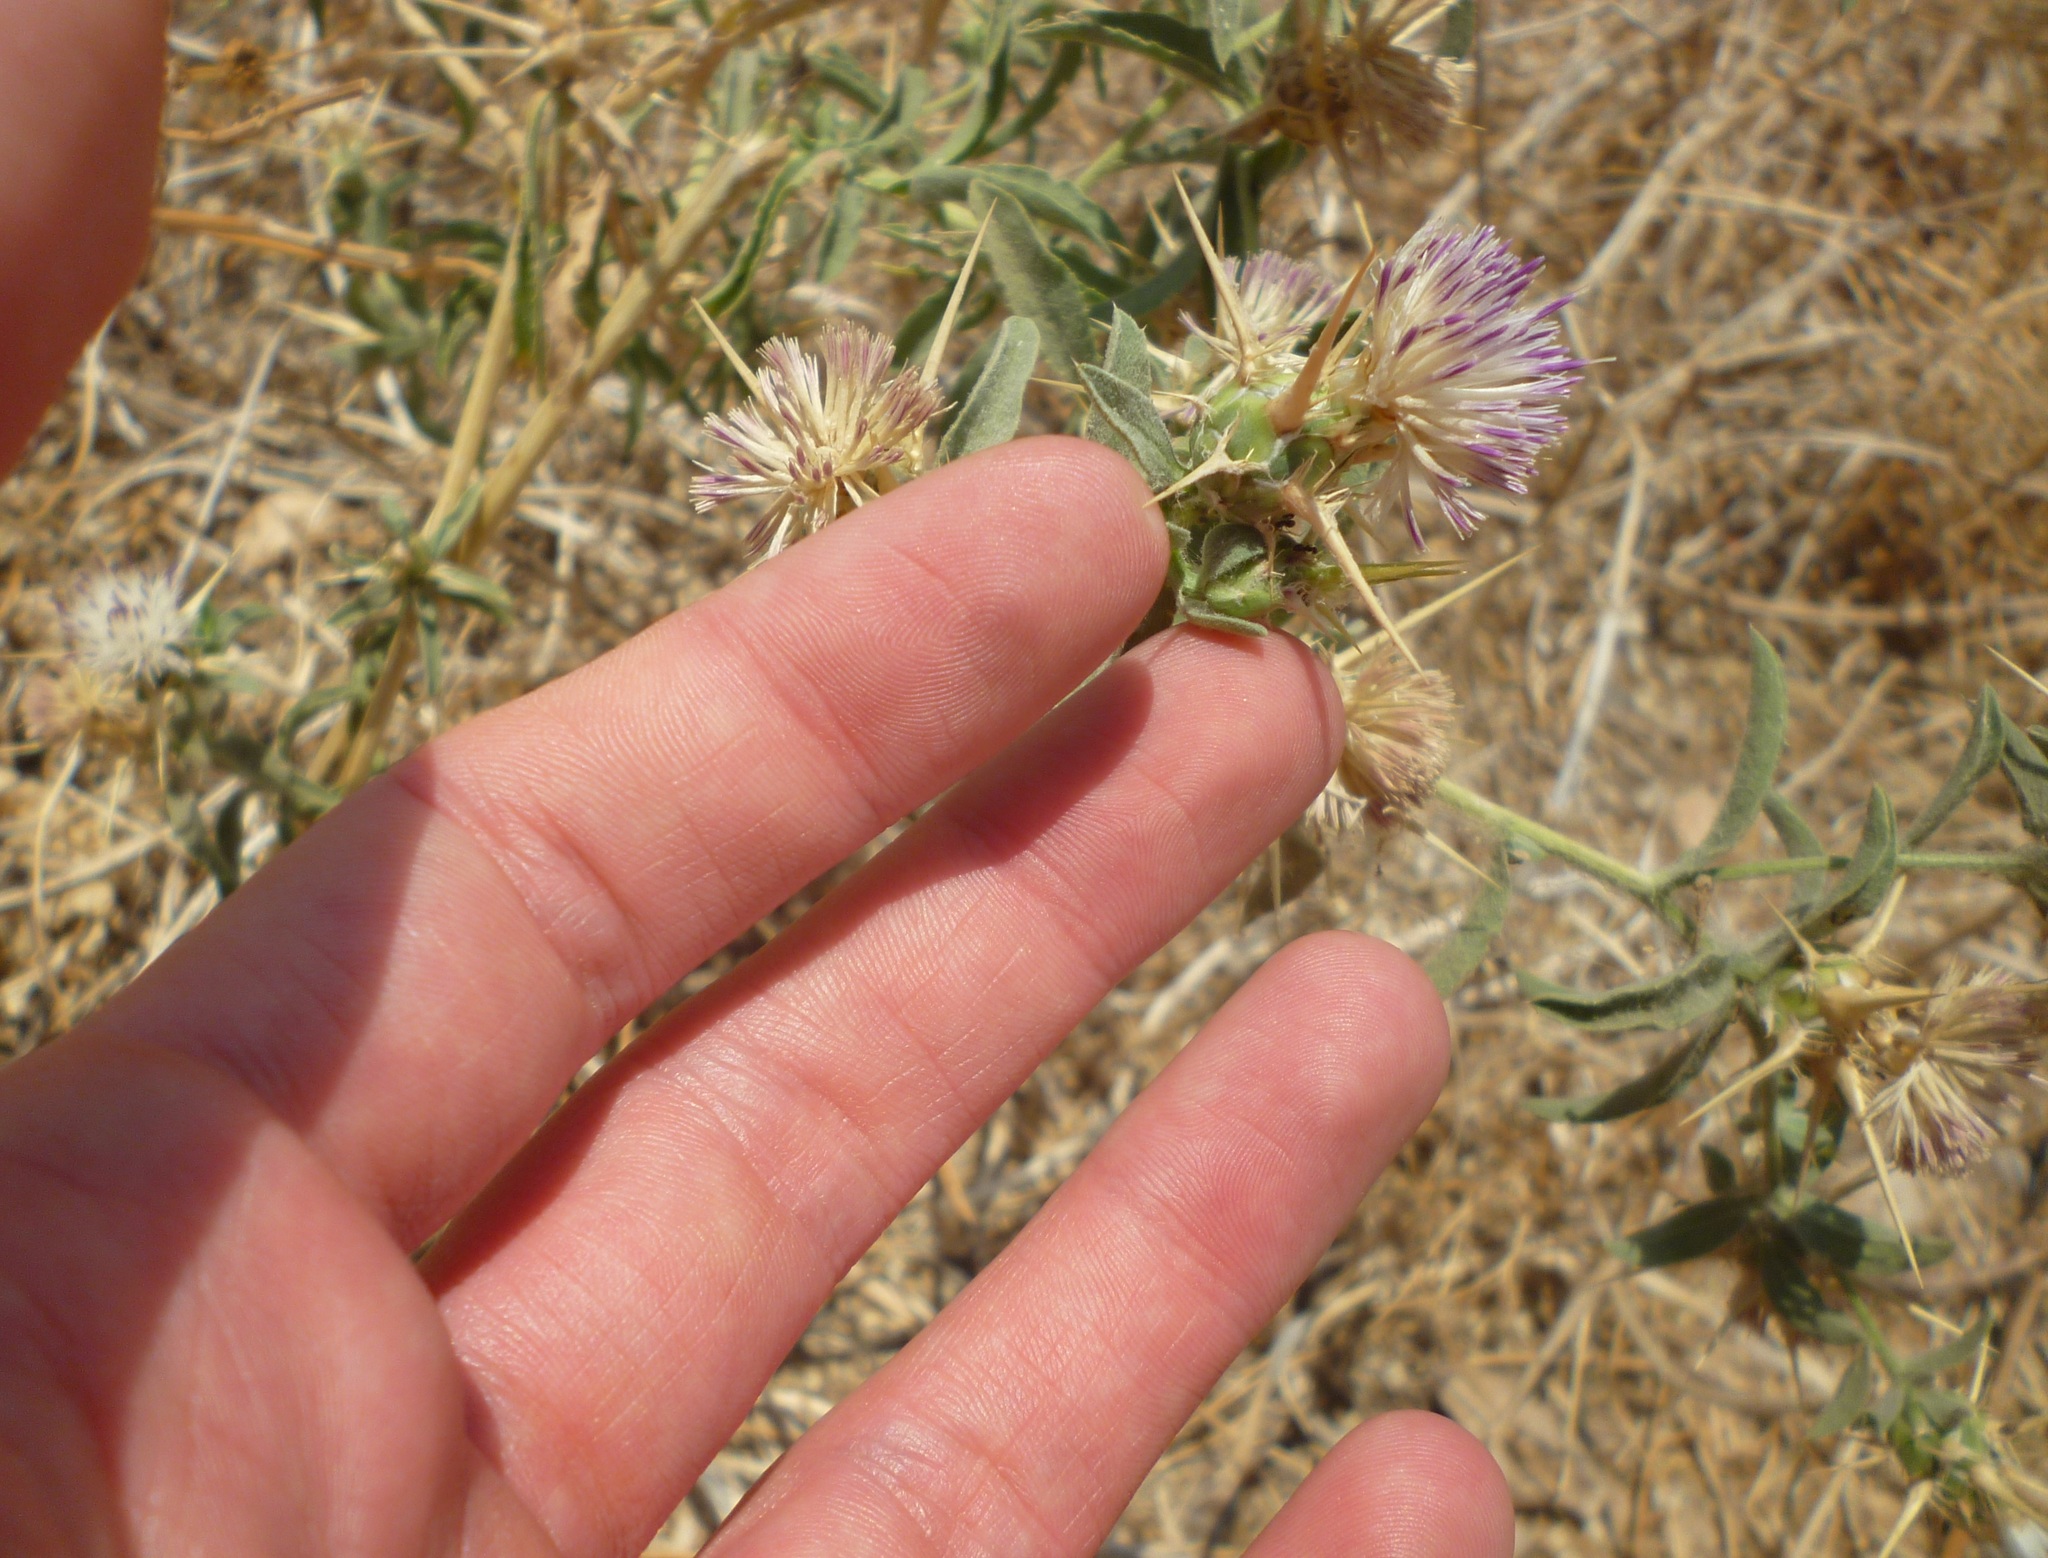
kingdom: Plantae
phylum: Tracheophyta
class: Magnoliopsida
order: Asterales
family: Asteraceae
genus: Centaurea
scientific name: Centaurea iberica
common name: Iberian knapweed
